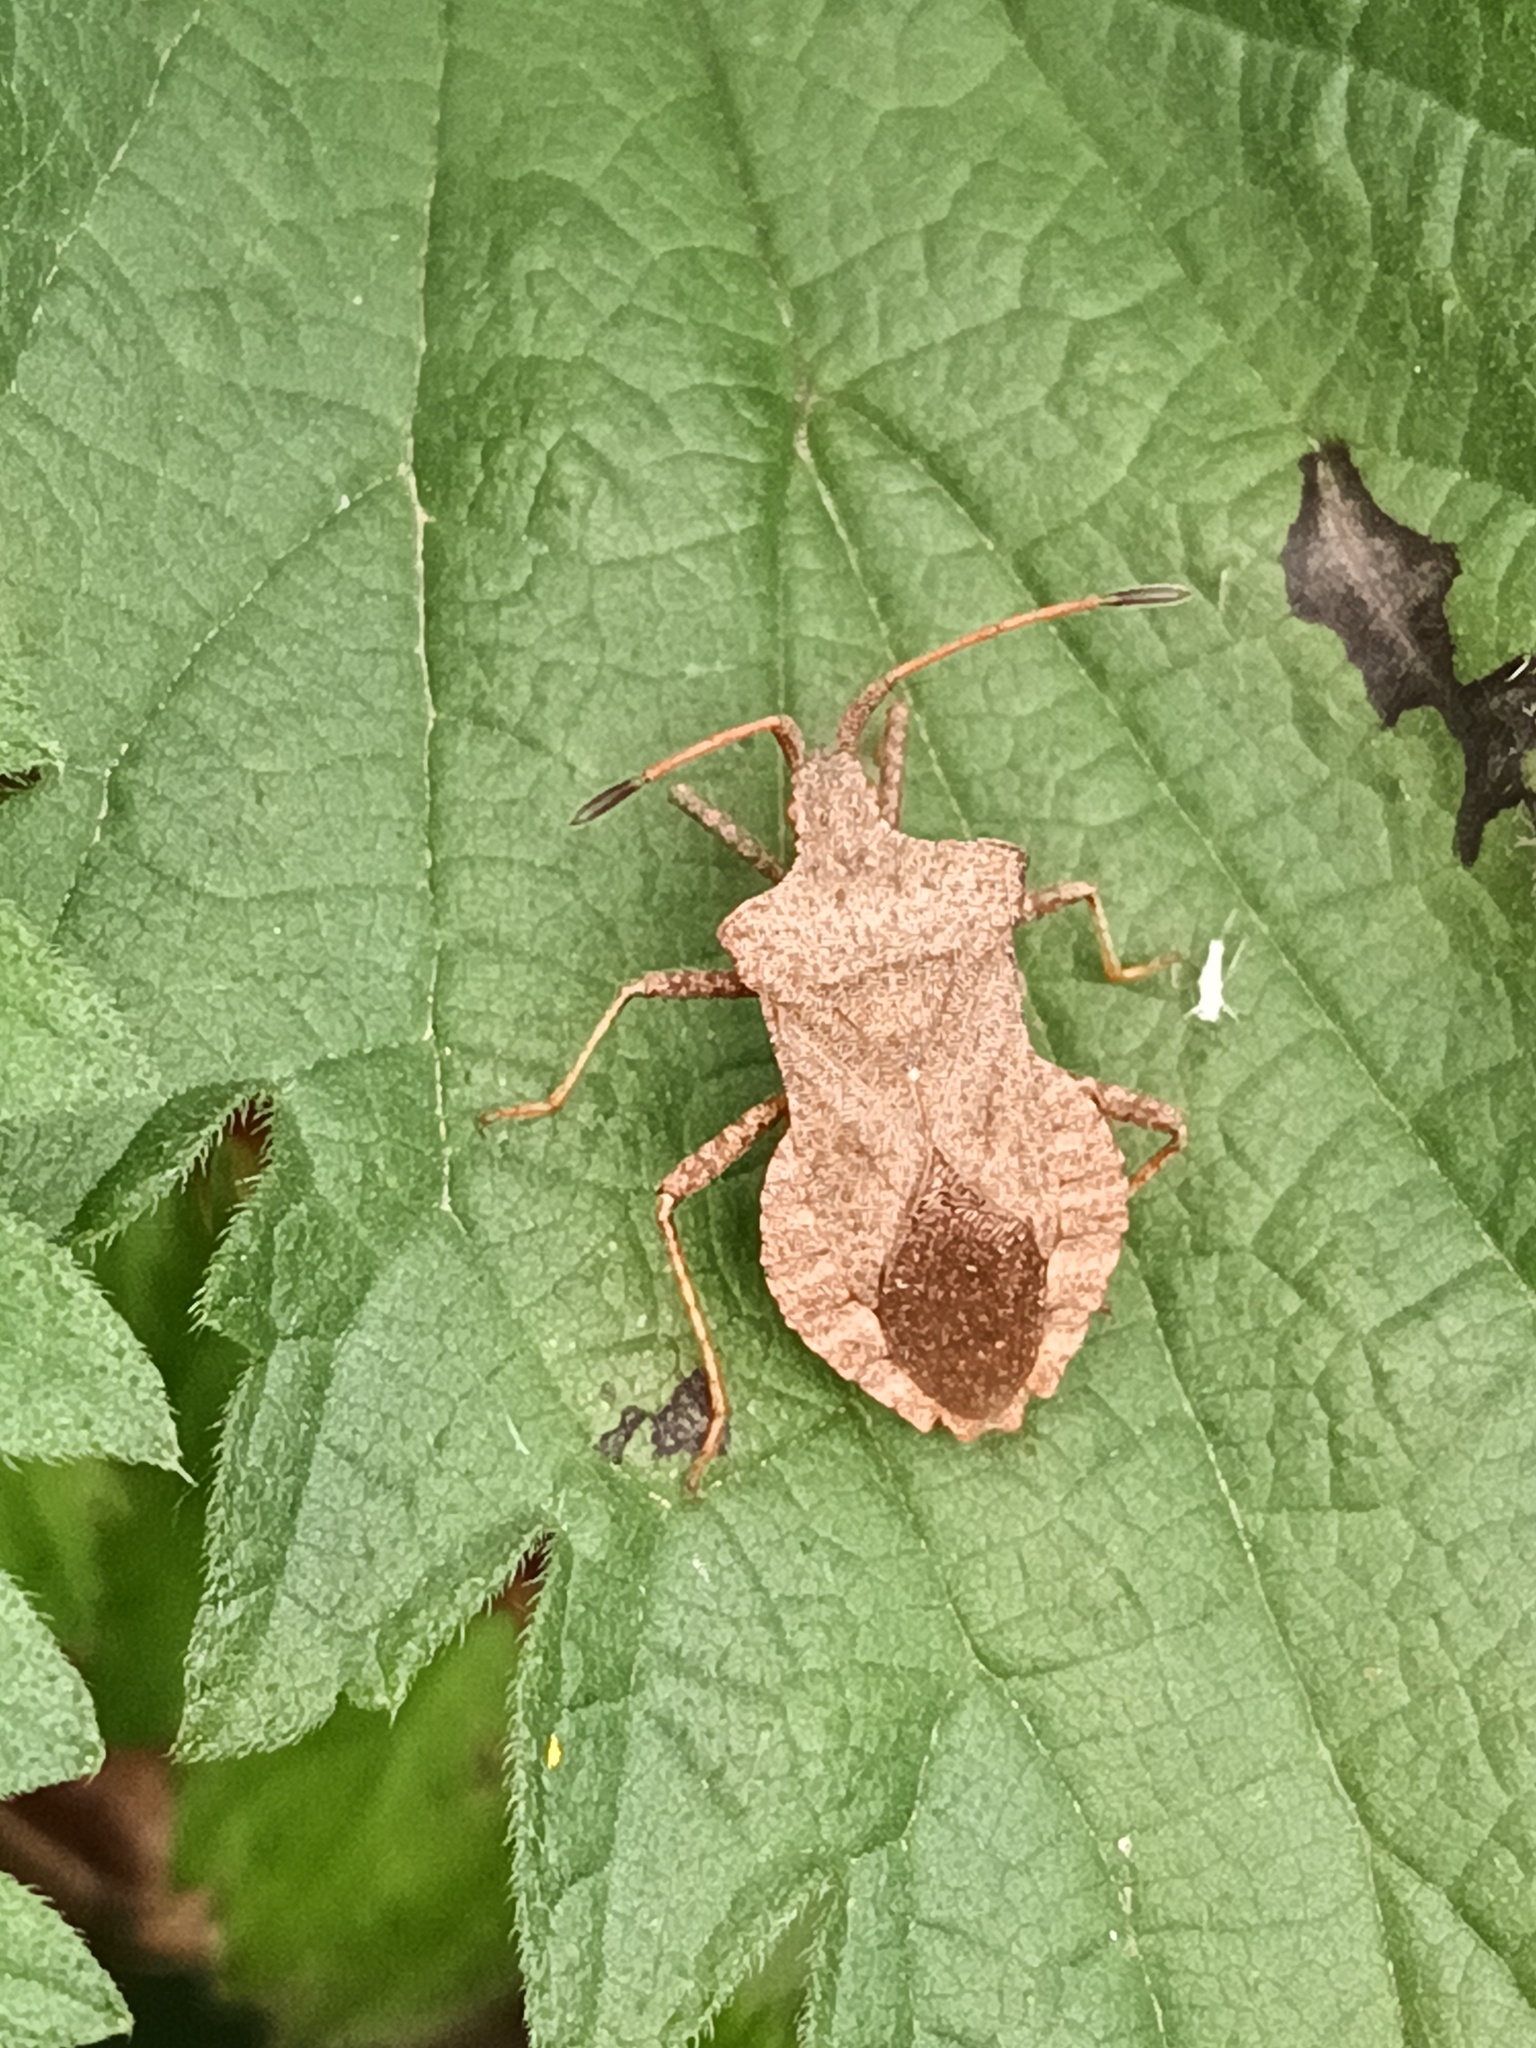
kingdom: Animalia
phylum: Arthropoda
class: Insecta
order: Hemiptera
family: Coreidae
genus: Coreus
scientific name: Coreus marginatus
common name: Dock bug
